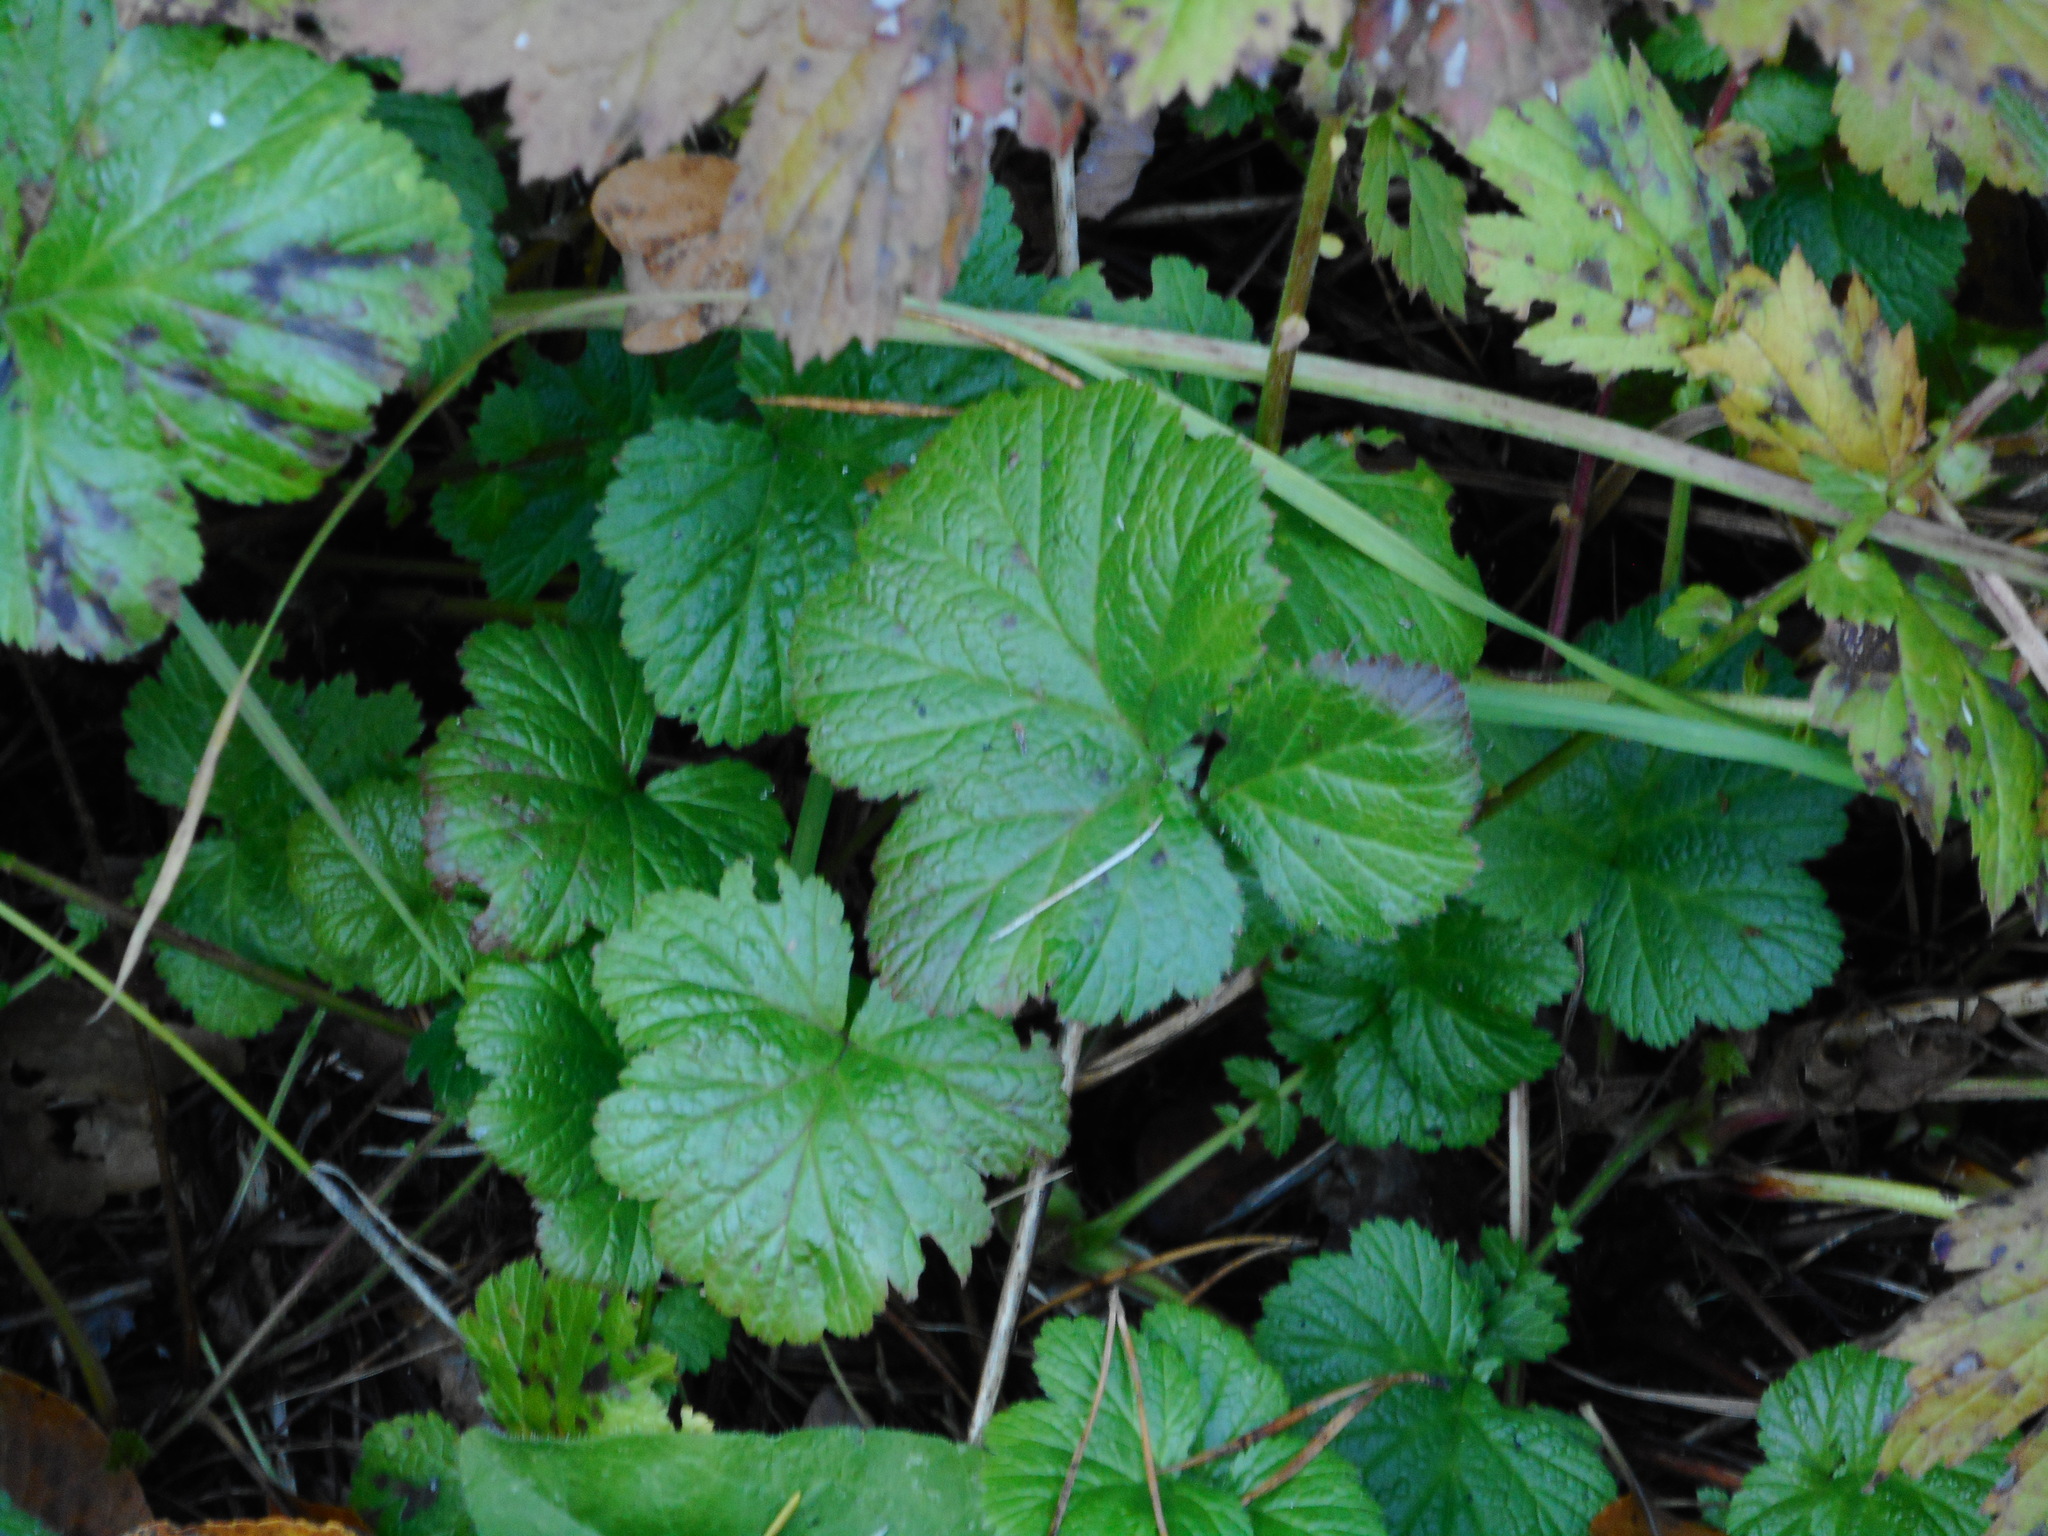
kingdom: Plantae
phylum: Tracheophyta
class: Magnoliopsida
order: Rosales
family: Rosaceae
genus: Geum
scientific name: Geum rivale
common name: Water avens
